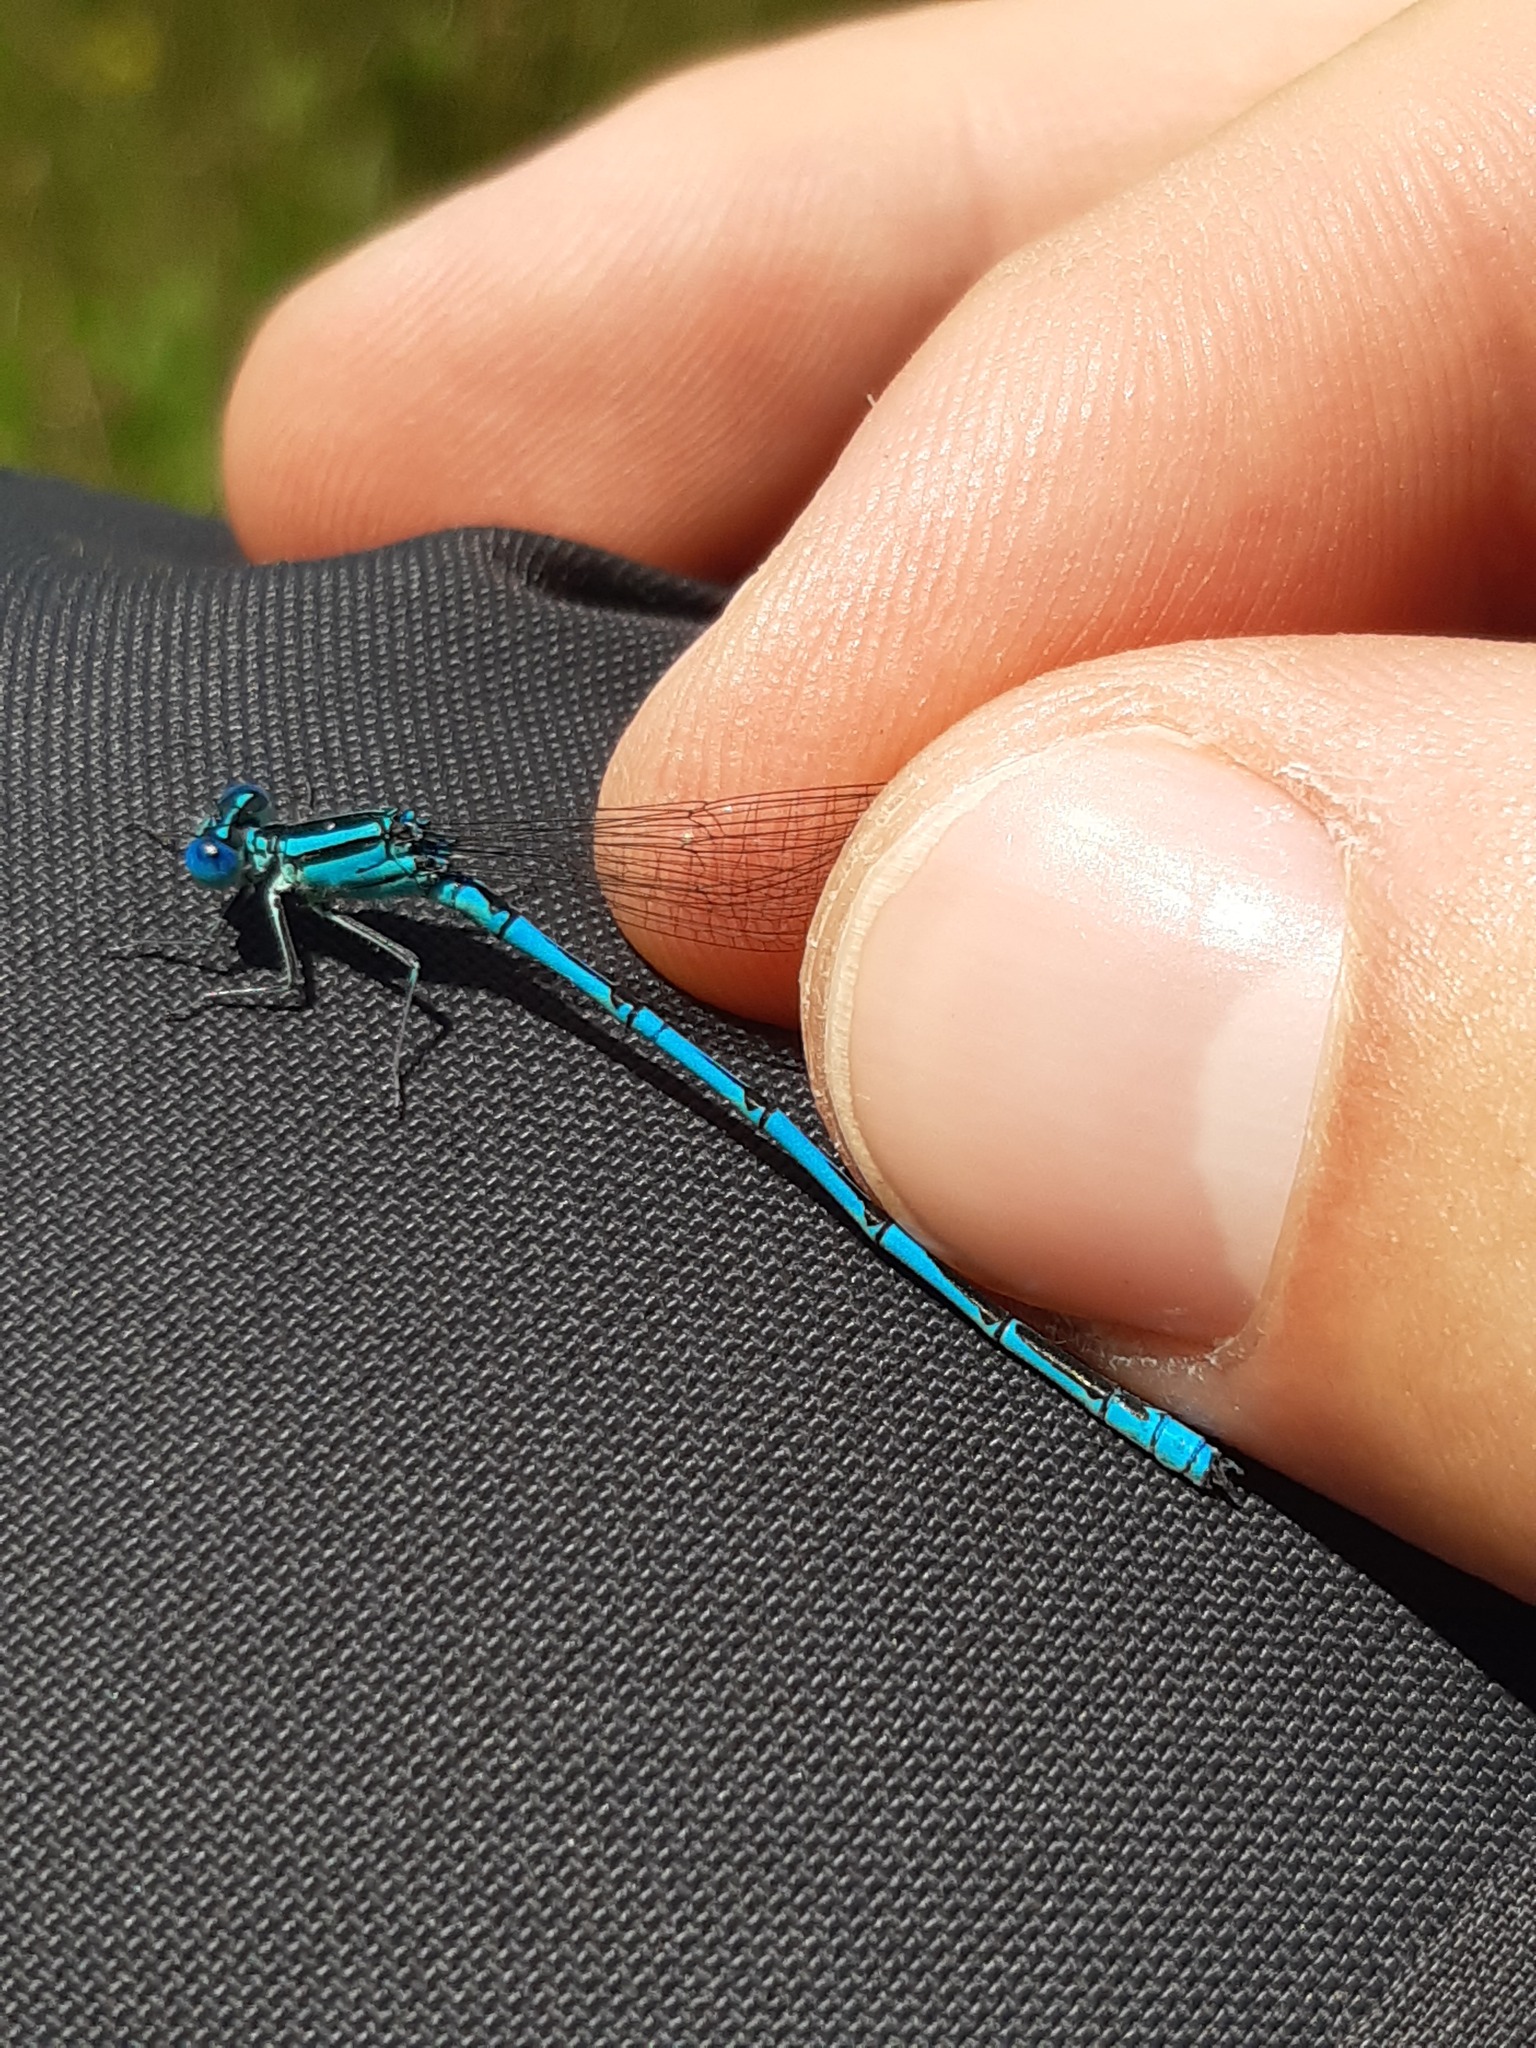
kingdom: Animalia
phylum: Arthropoda
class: Insecta
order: Odonata
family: Coenagrionidae
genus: Erythromma
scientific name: Erythromma lindenii
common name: Blue-eye
